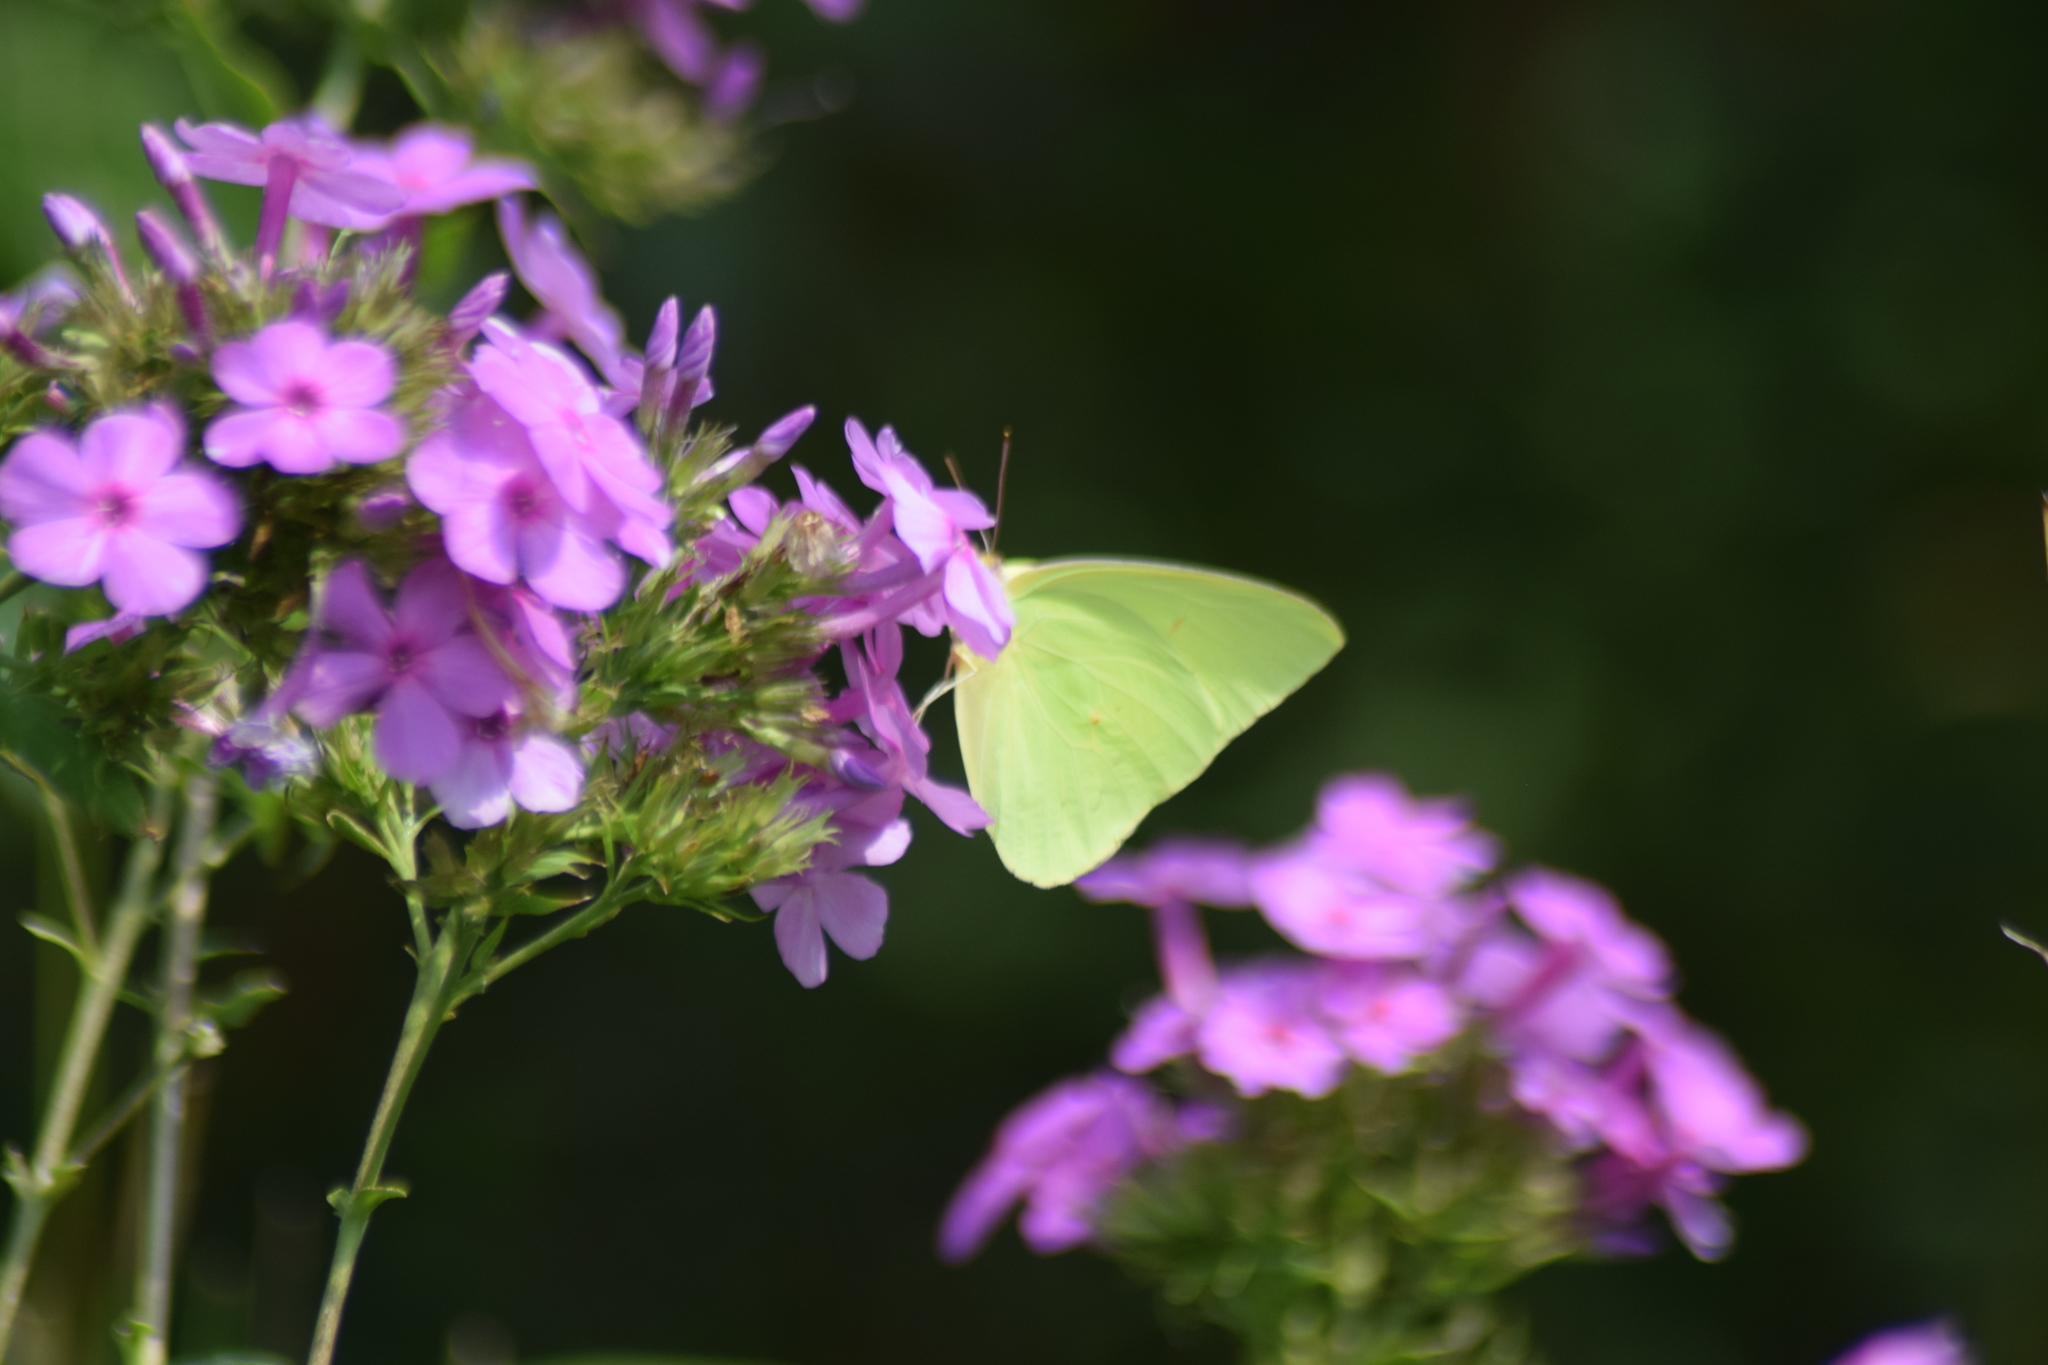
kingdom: Animalia
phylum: Arthropoda
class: Insecta
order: Lepidoptera
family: Pieridae
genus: Phoebis
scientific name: Phoebis sennae
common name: Cloudless sulphur
